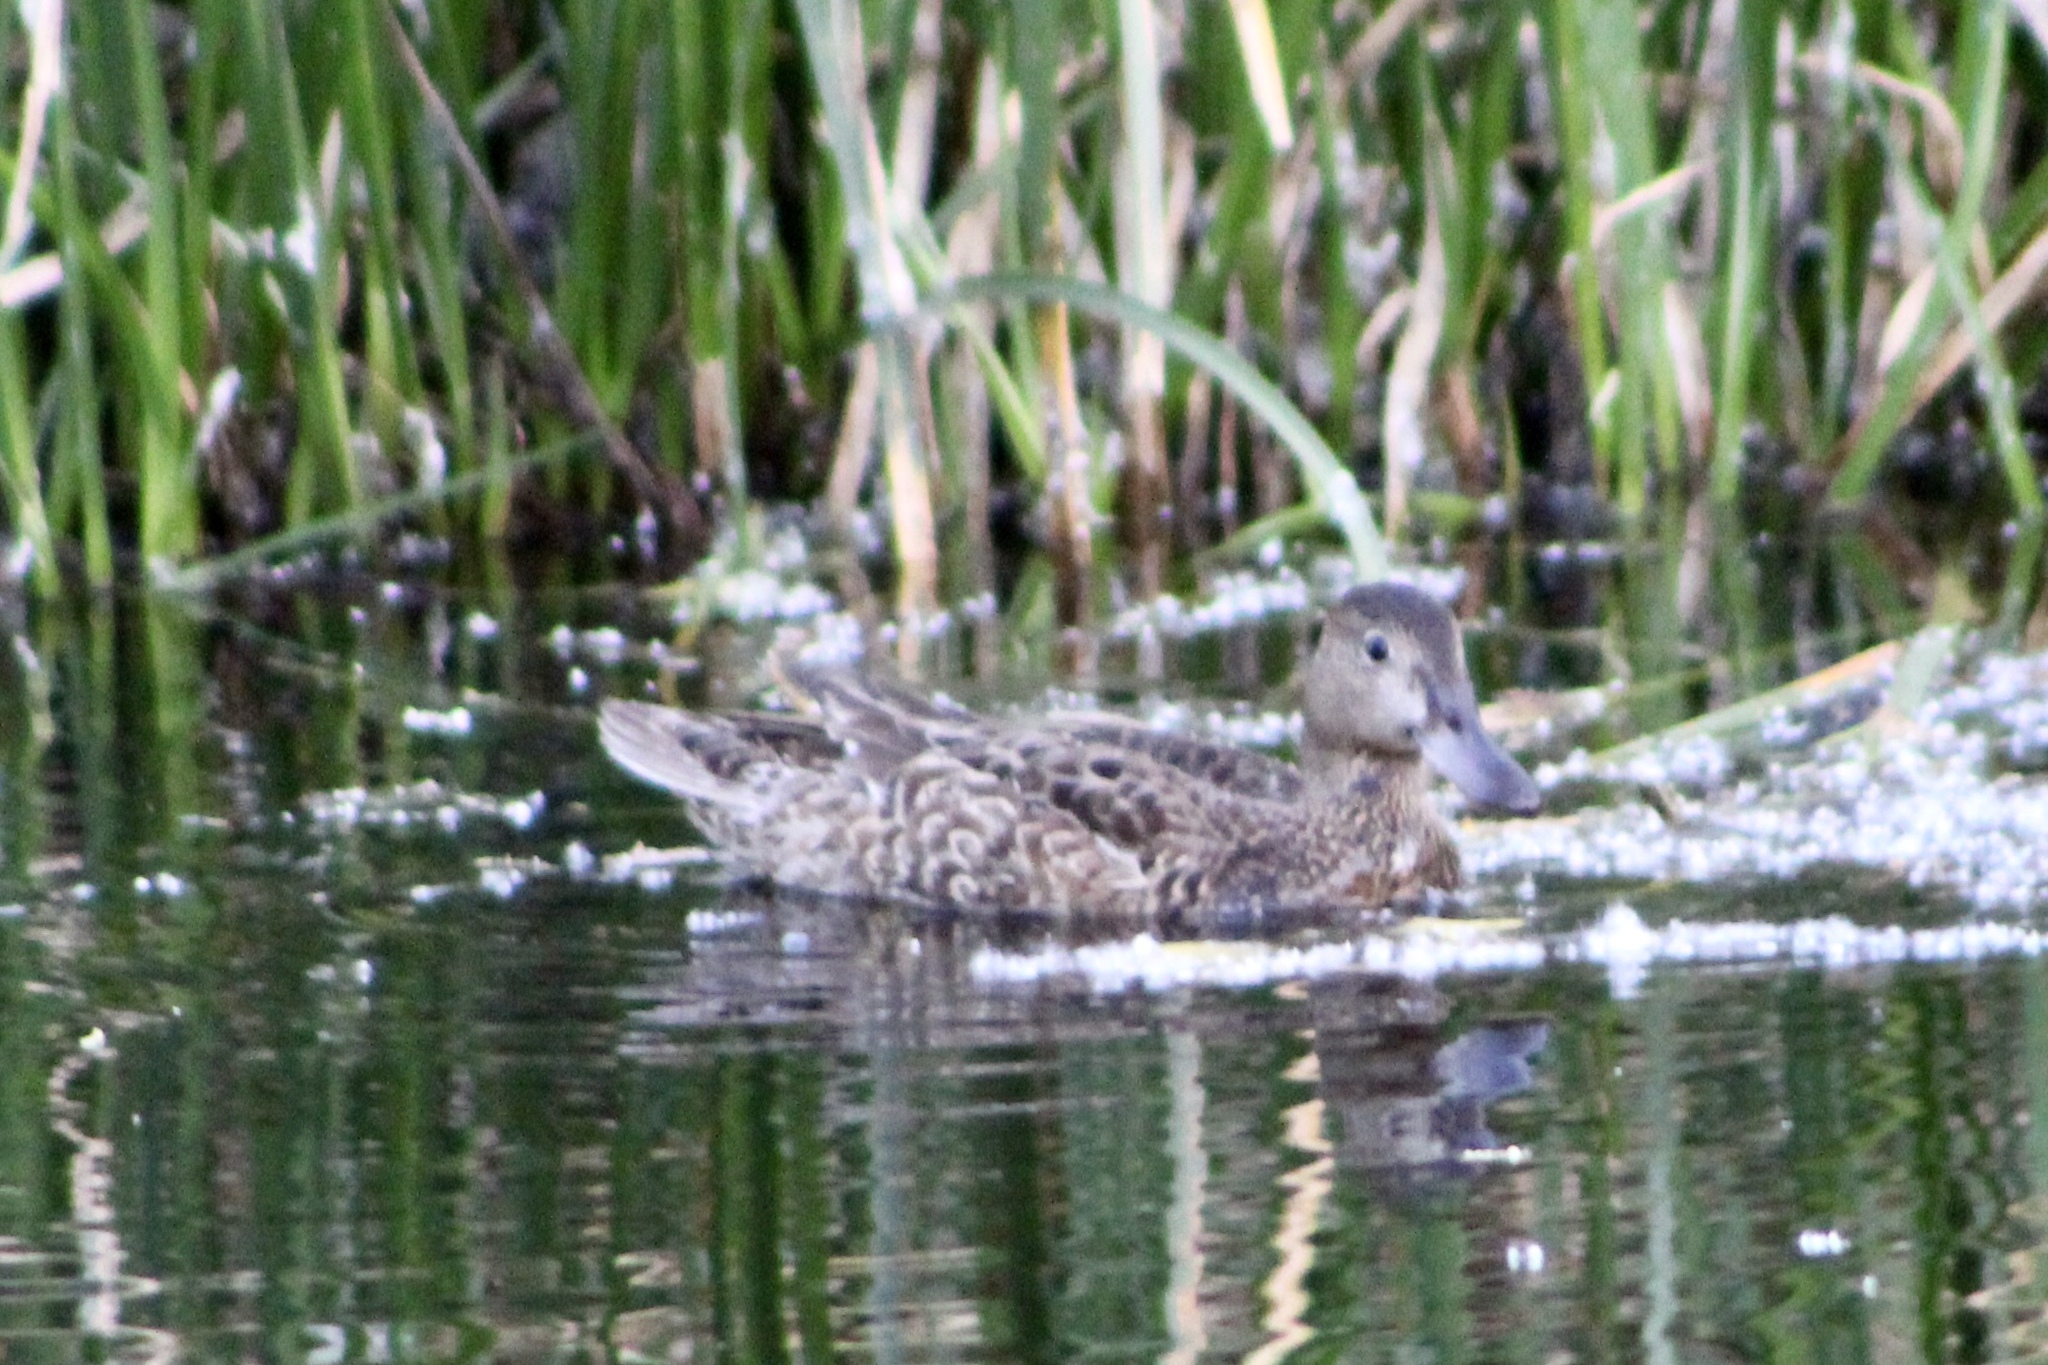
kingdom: Animalia
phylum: Chordata
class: Aves
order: Anseriformes
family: Anatidae
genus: Spatula
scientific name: Spatula cyanoptera
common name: Cinnamon teal
